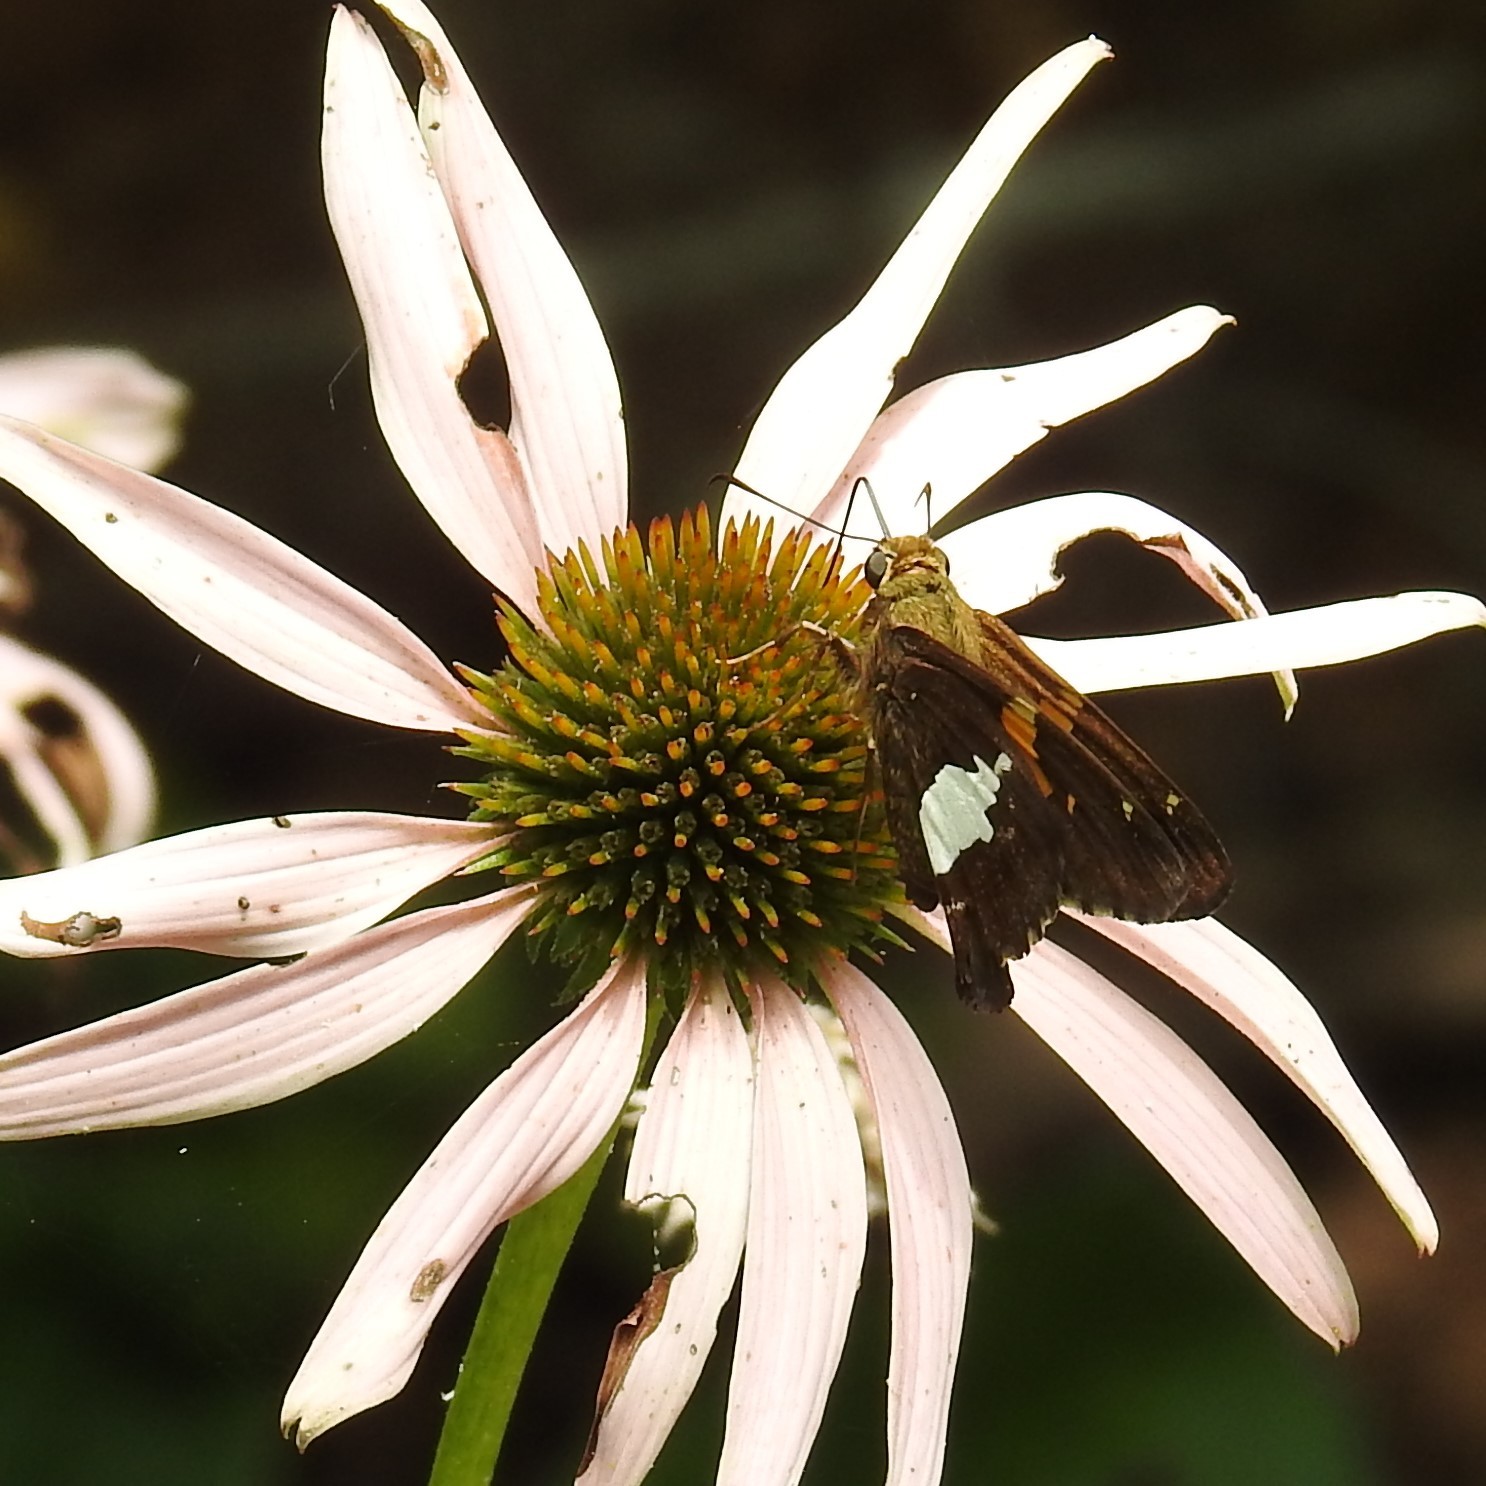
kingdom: Animalia
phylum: Arthropoda
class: Insecta
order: Lepidoptera
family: Hesperiidae
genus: Epargyreus
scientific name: Epargyreus clarus
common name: Silver-spotted skipper
